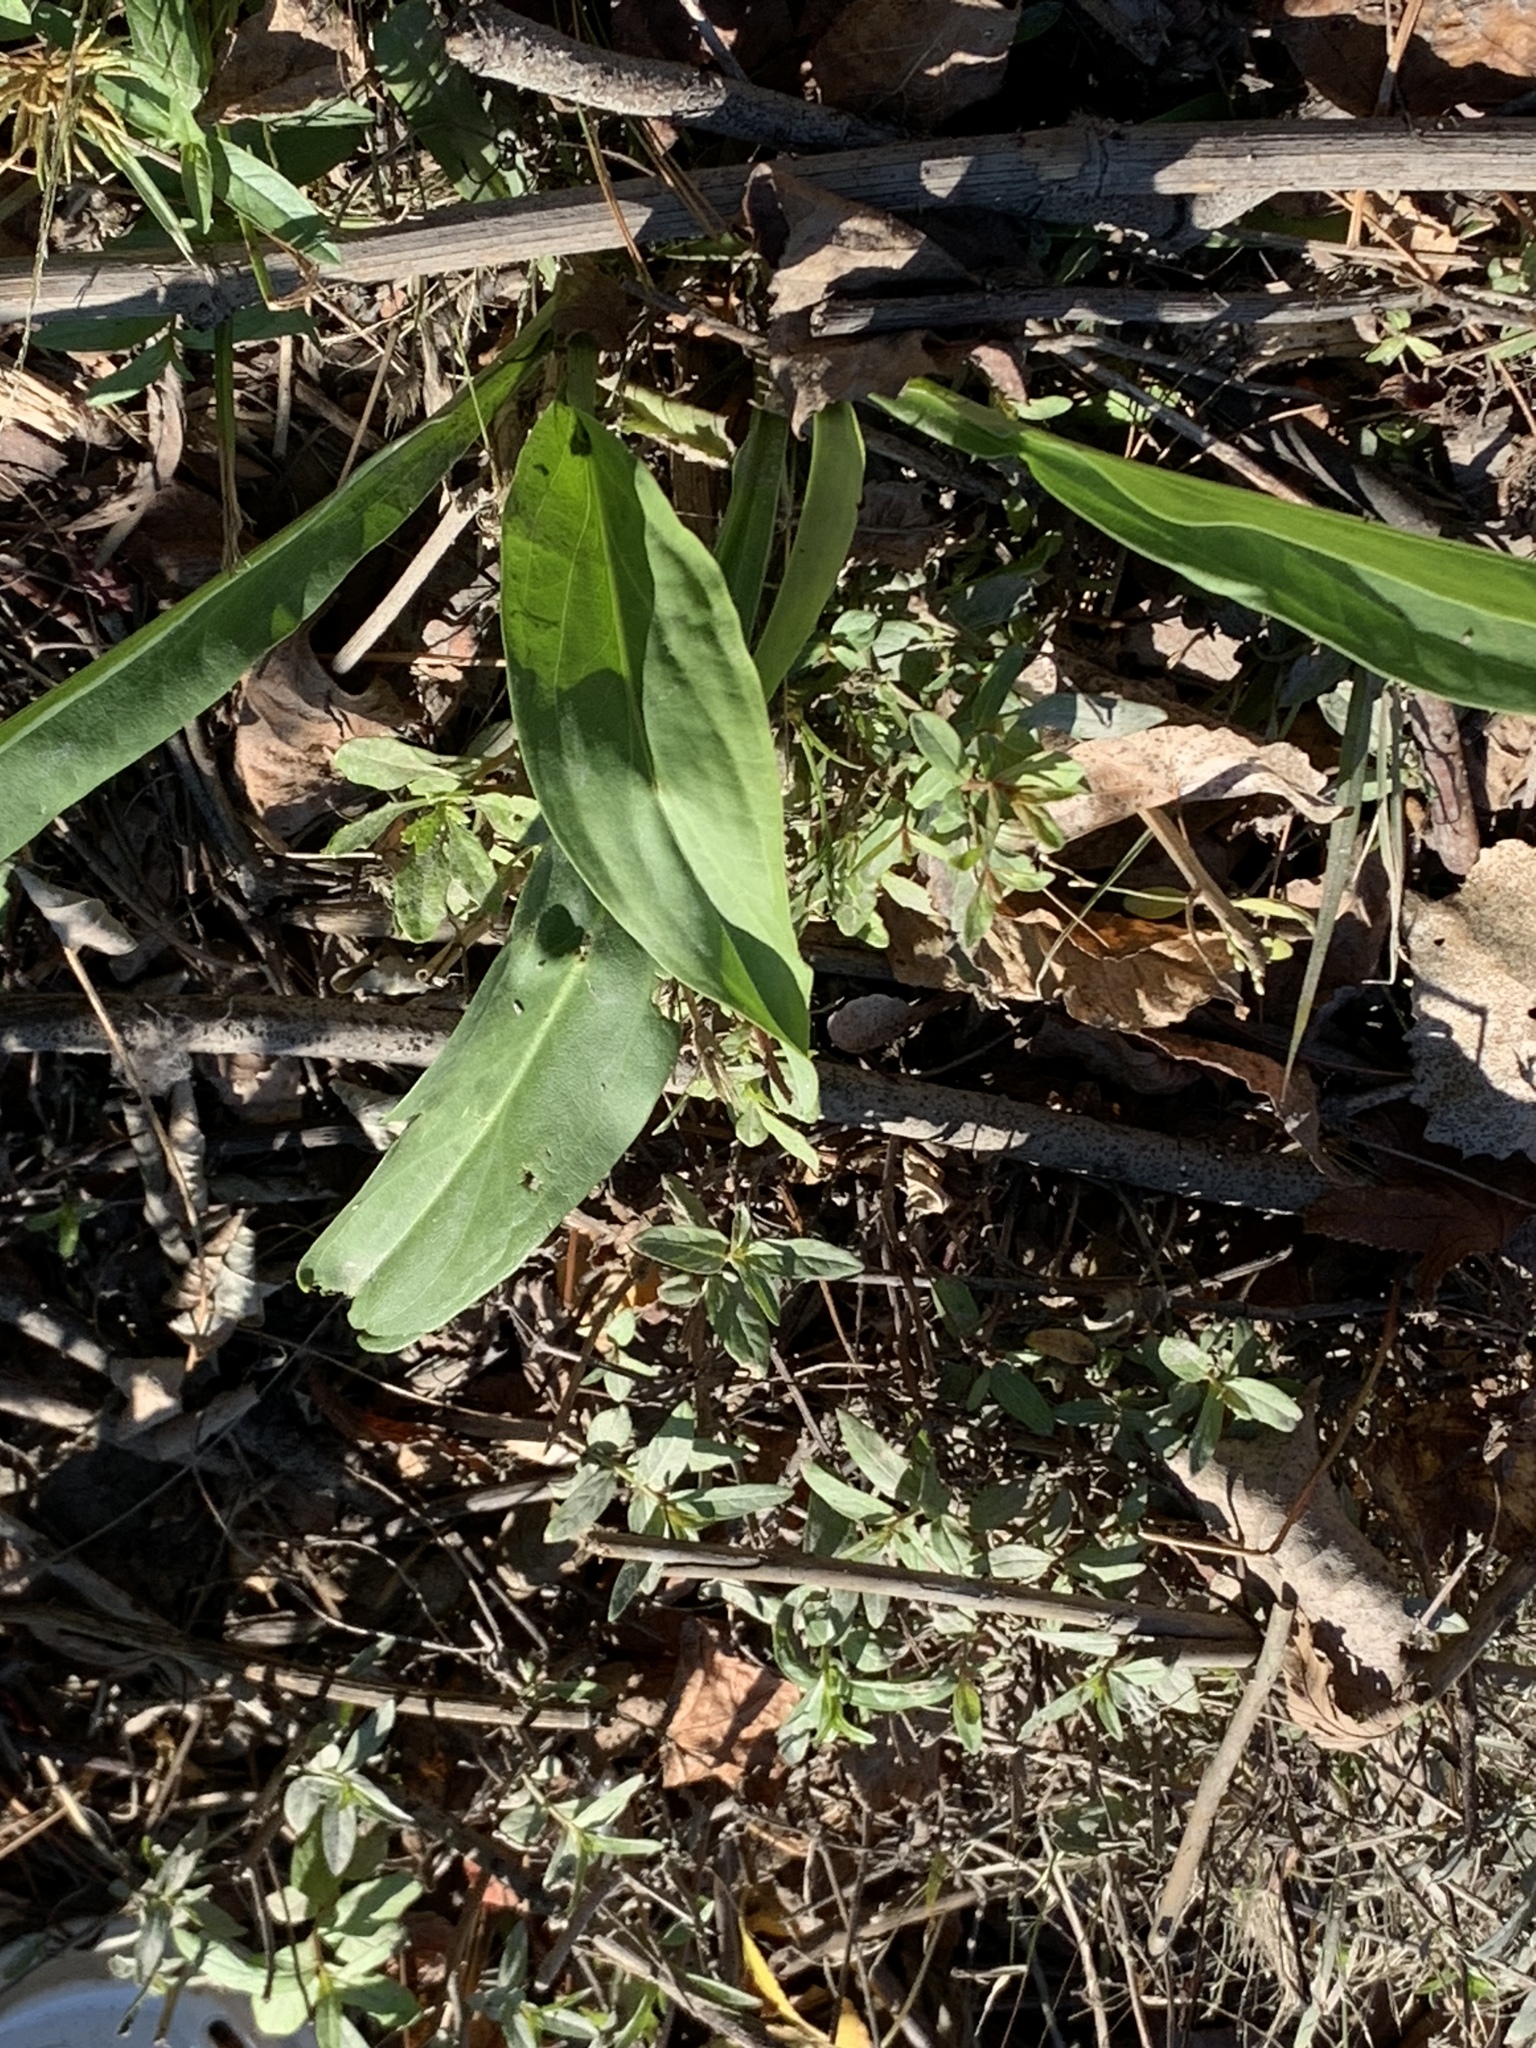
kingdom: Plantae
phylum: Tracheophyta
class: Magnoliopsida
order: Asterales
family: Asteraceae
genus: Solidago
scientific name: Solidago sempervirens
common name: Salt-marsh goldenrod
